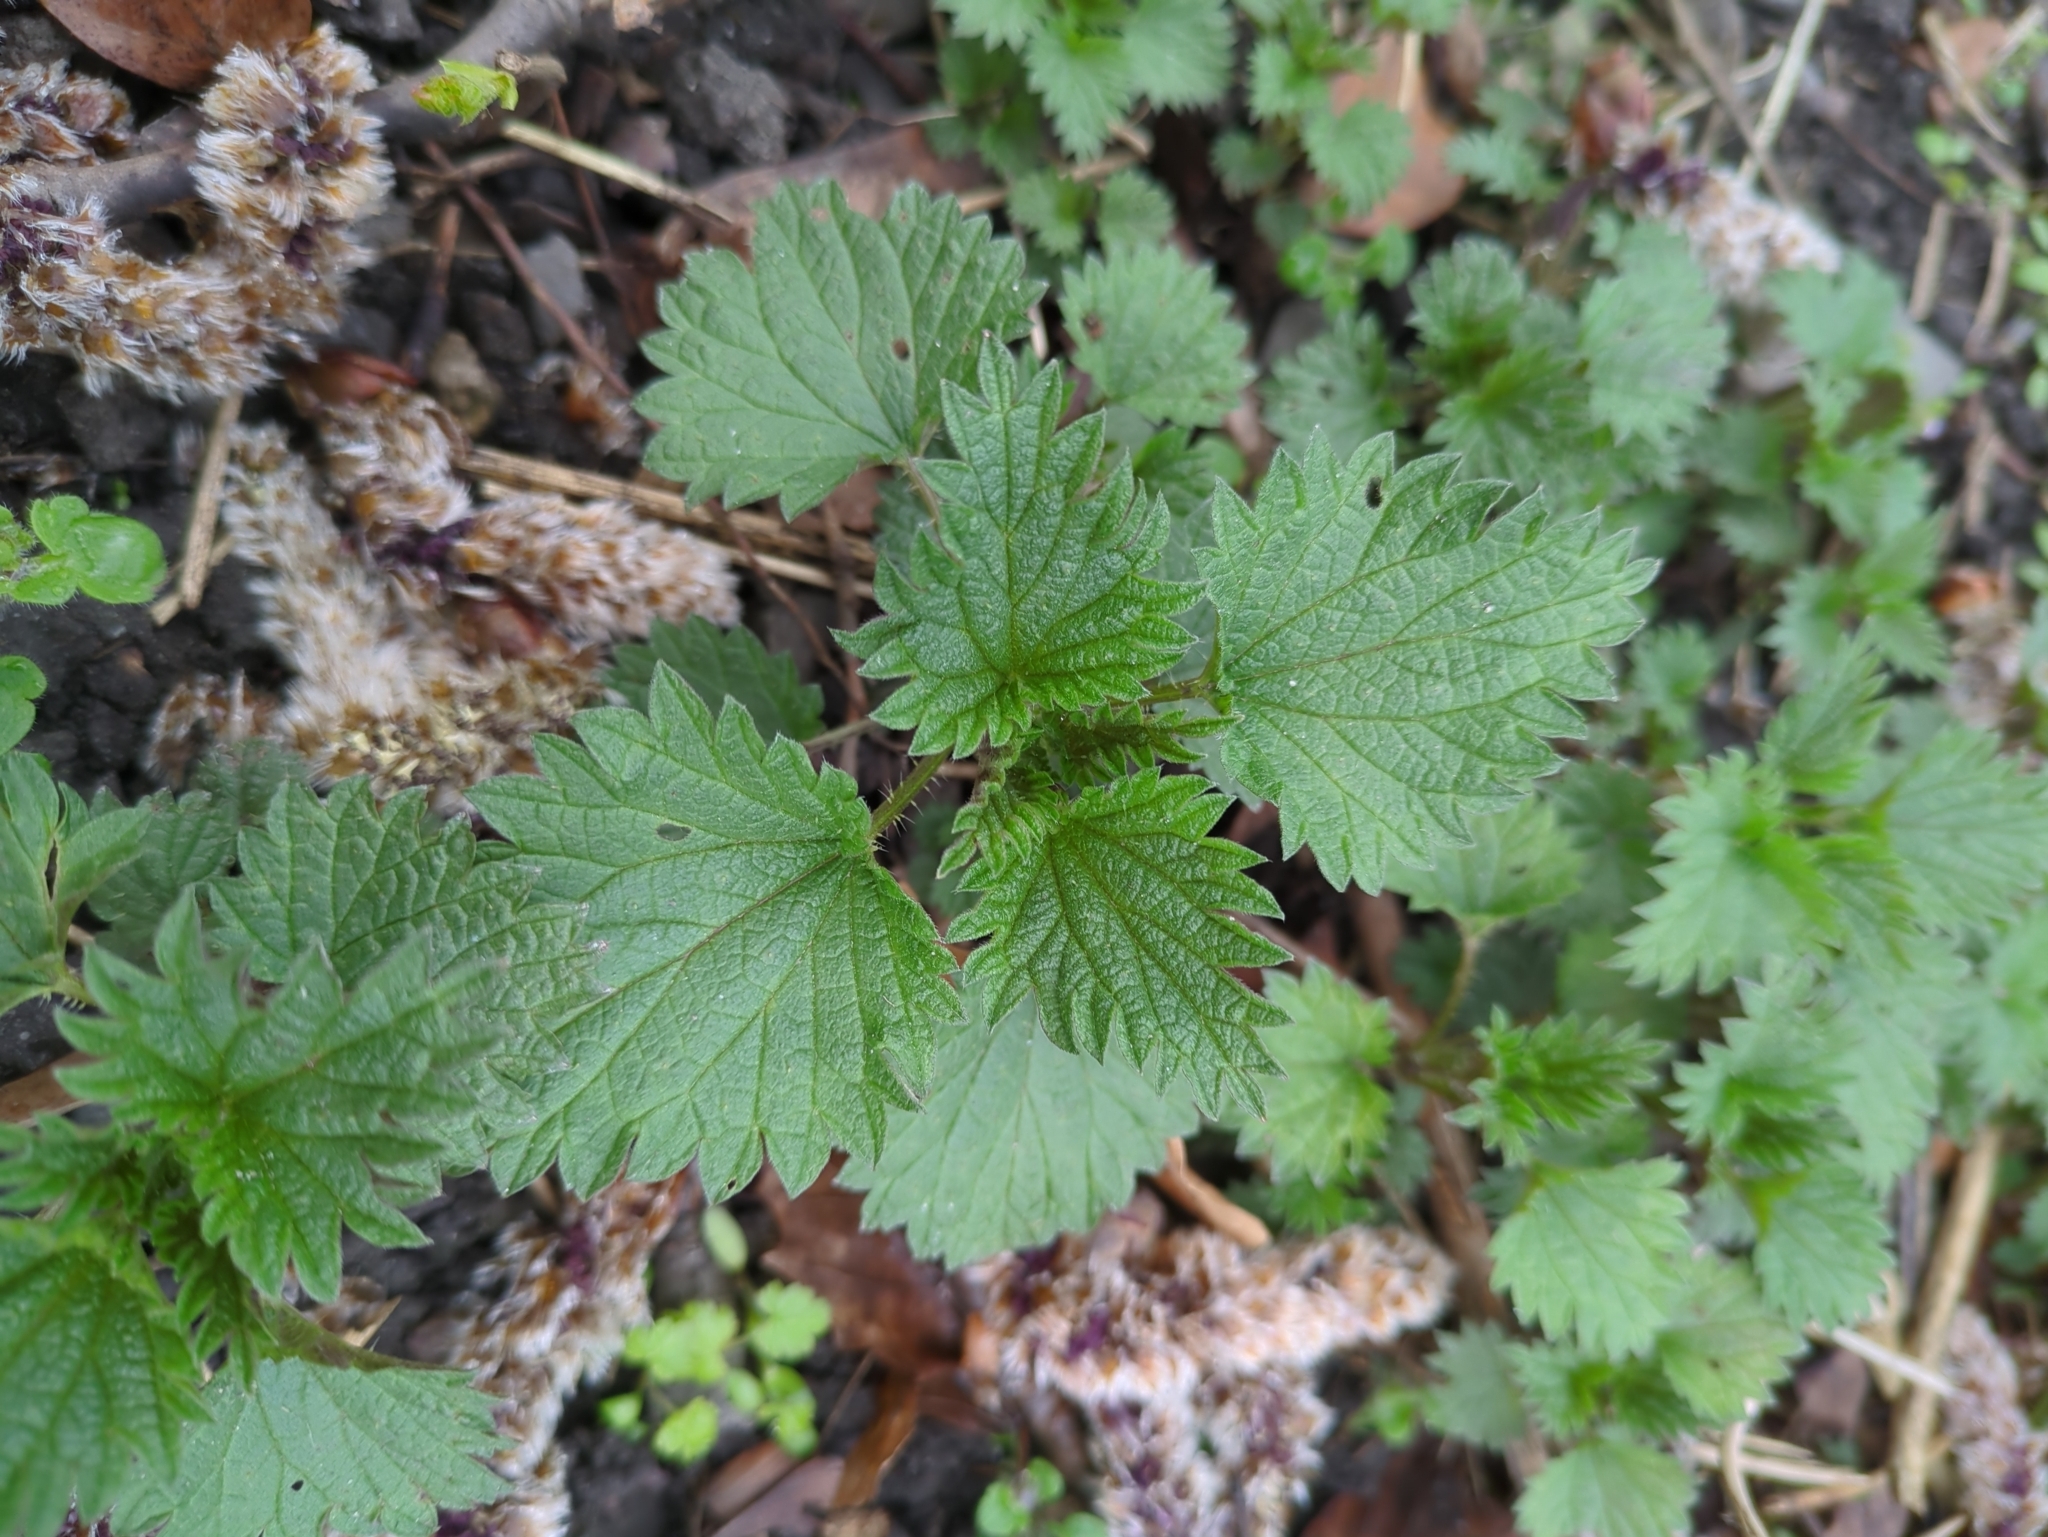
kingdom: Plantae
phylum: Tracheophyta
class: Magnoliopsida
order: Rosales
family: Urticaceae
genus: Urtica
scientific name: Urtica dioica
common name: Common nettle
